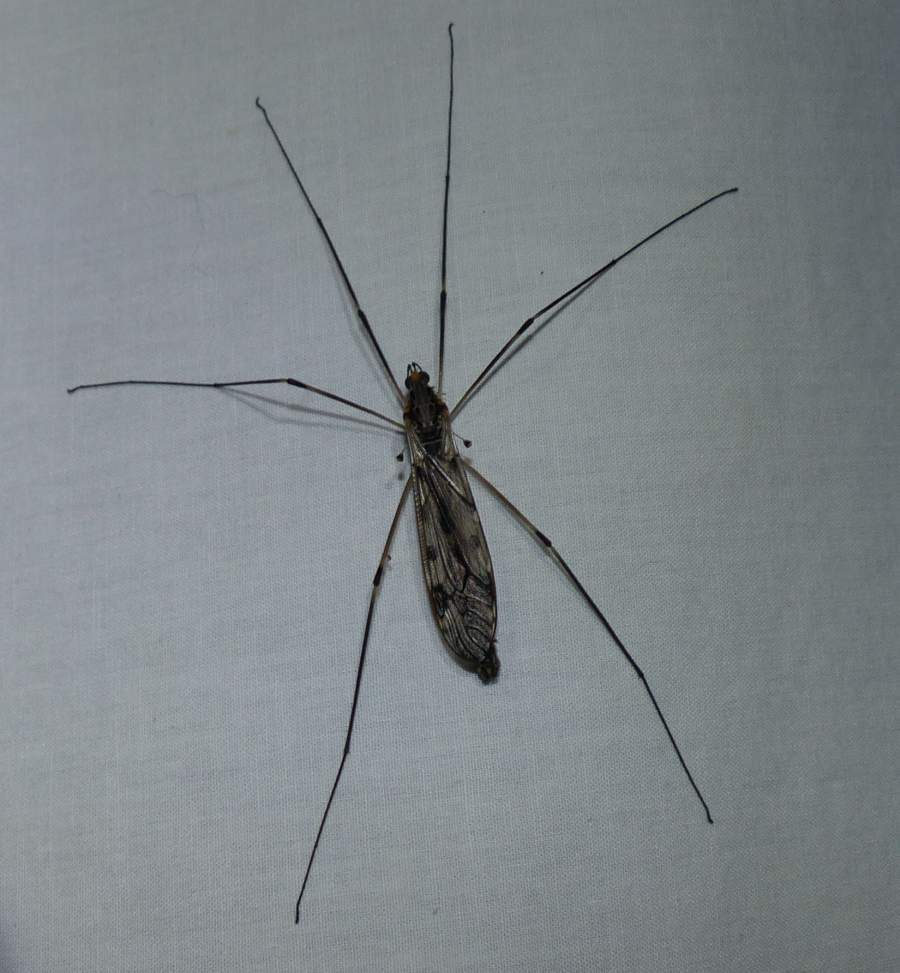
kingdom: Animalia
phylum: Arthropoda
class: Insecta
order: Diptera
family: Tipulidae
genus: Tipula
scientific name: Tipula abdominalis
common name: Giant crane fly
